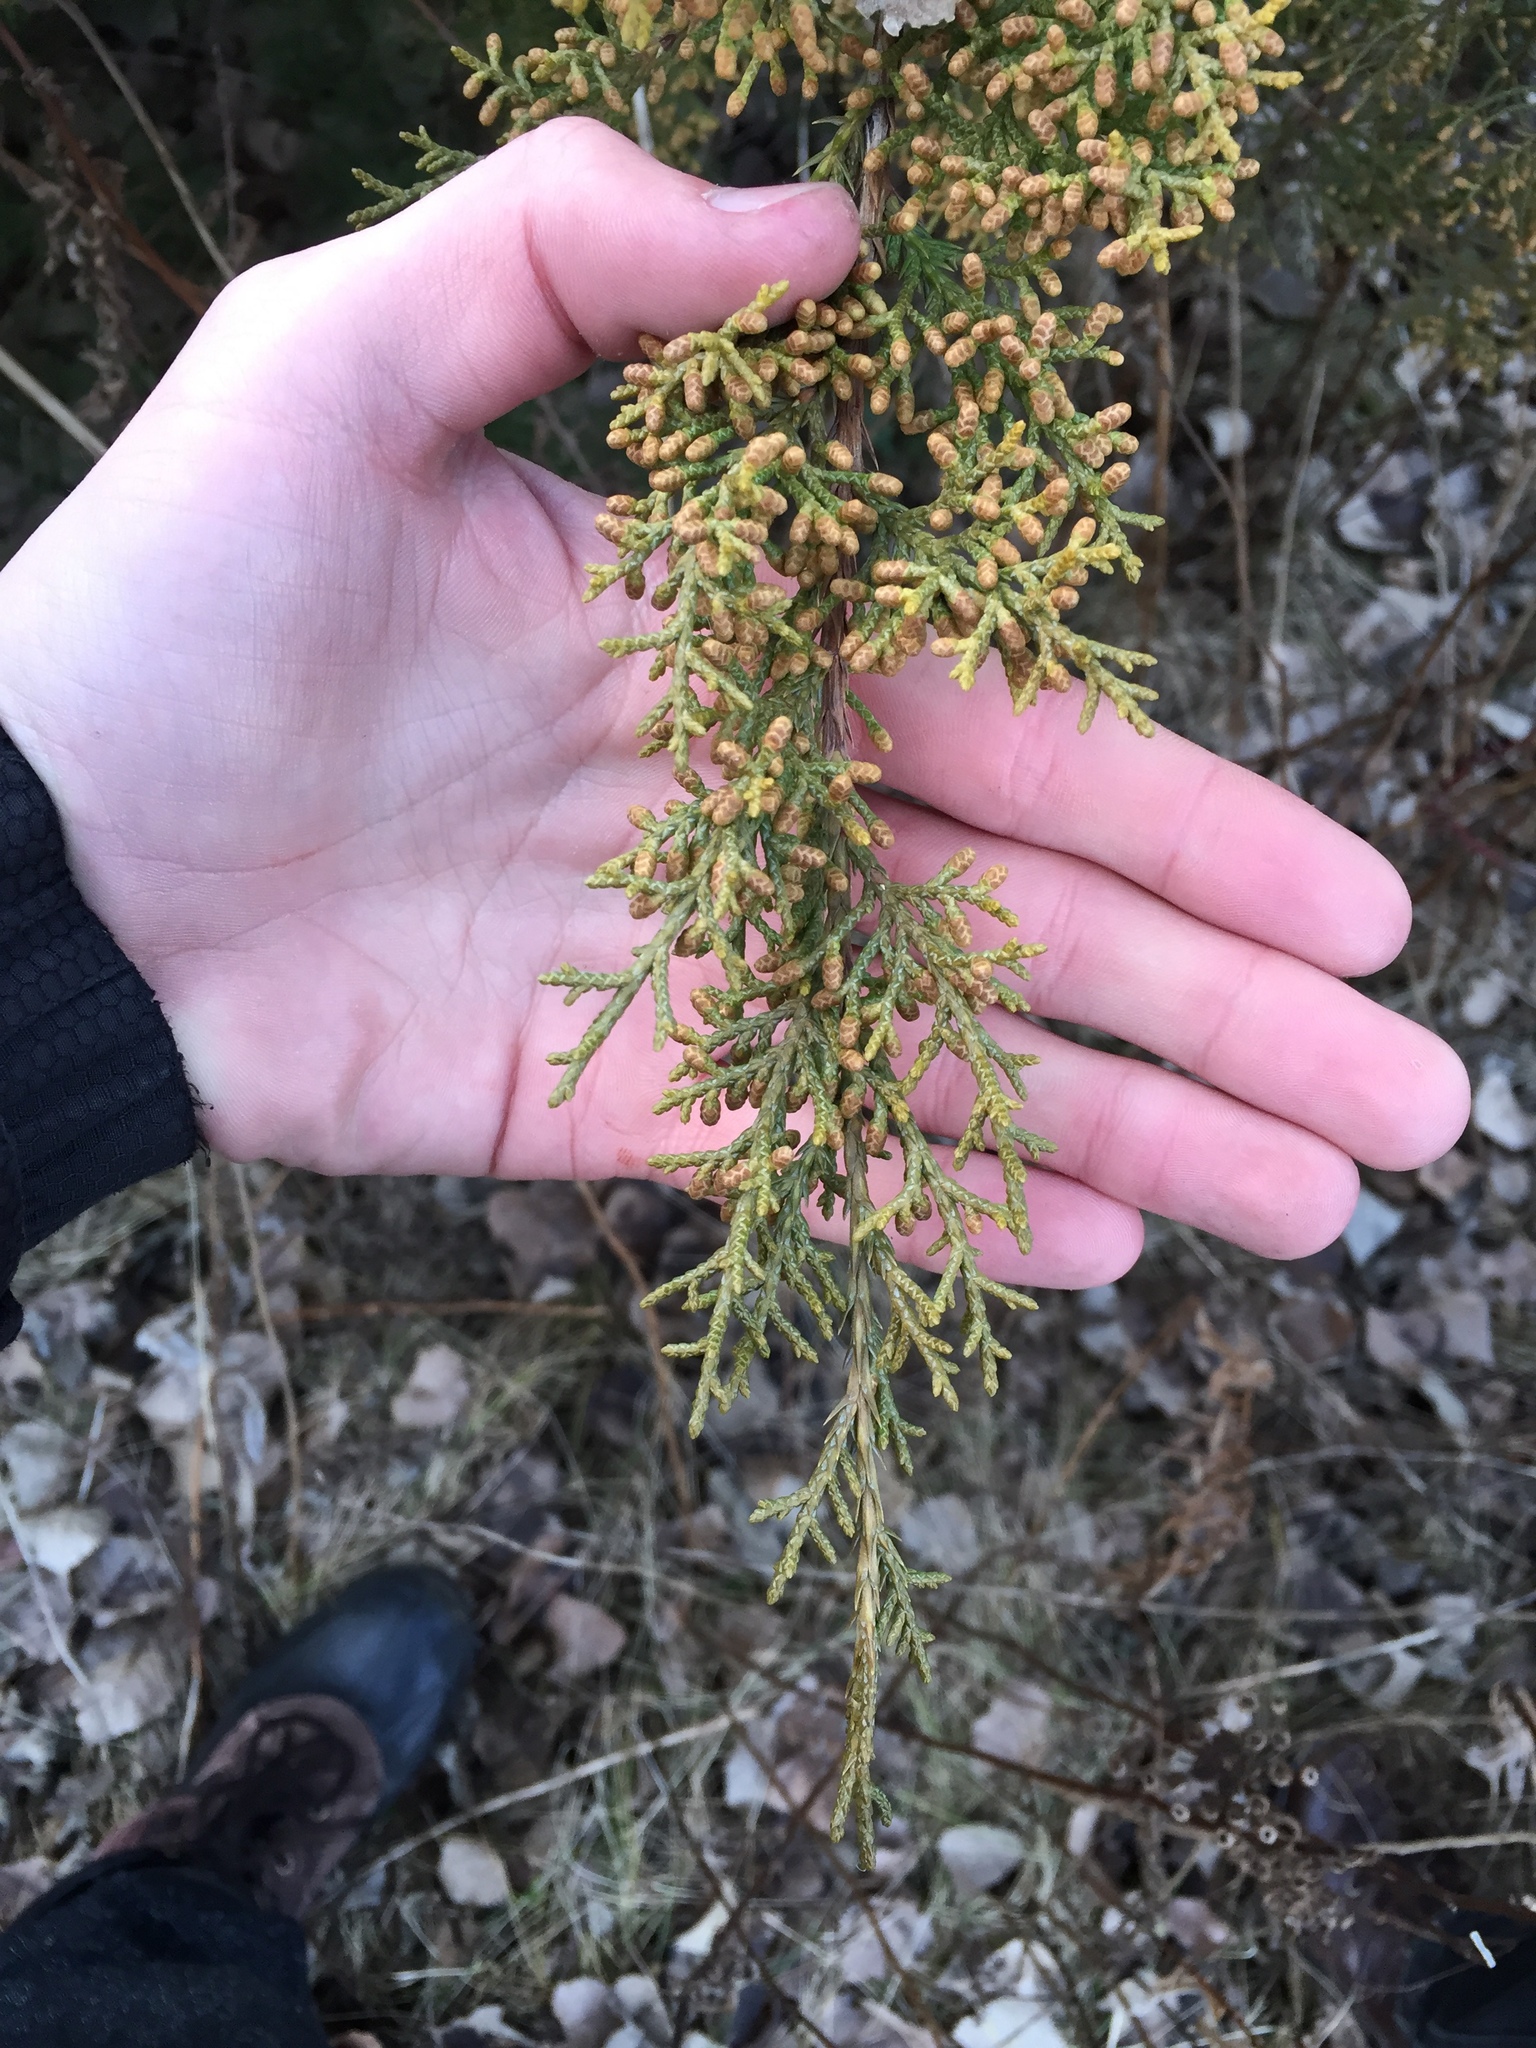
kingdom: Plantae
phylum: Tracheophyta
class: Pinopsida
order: Pinales
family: Cupressaceae
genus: Juniperus
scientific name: Juniperus virginiana
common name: Red juniper
